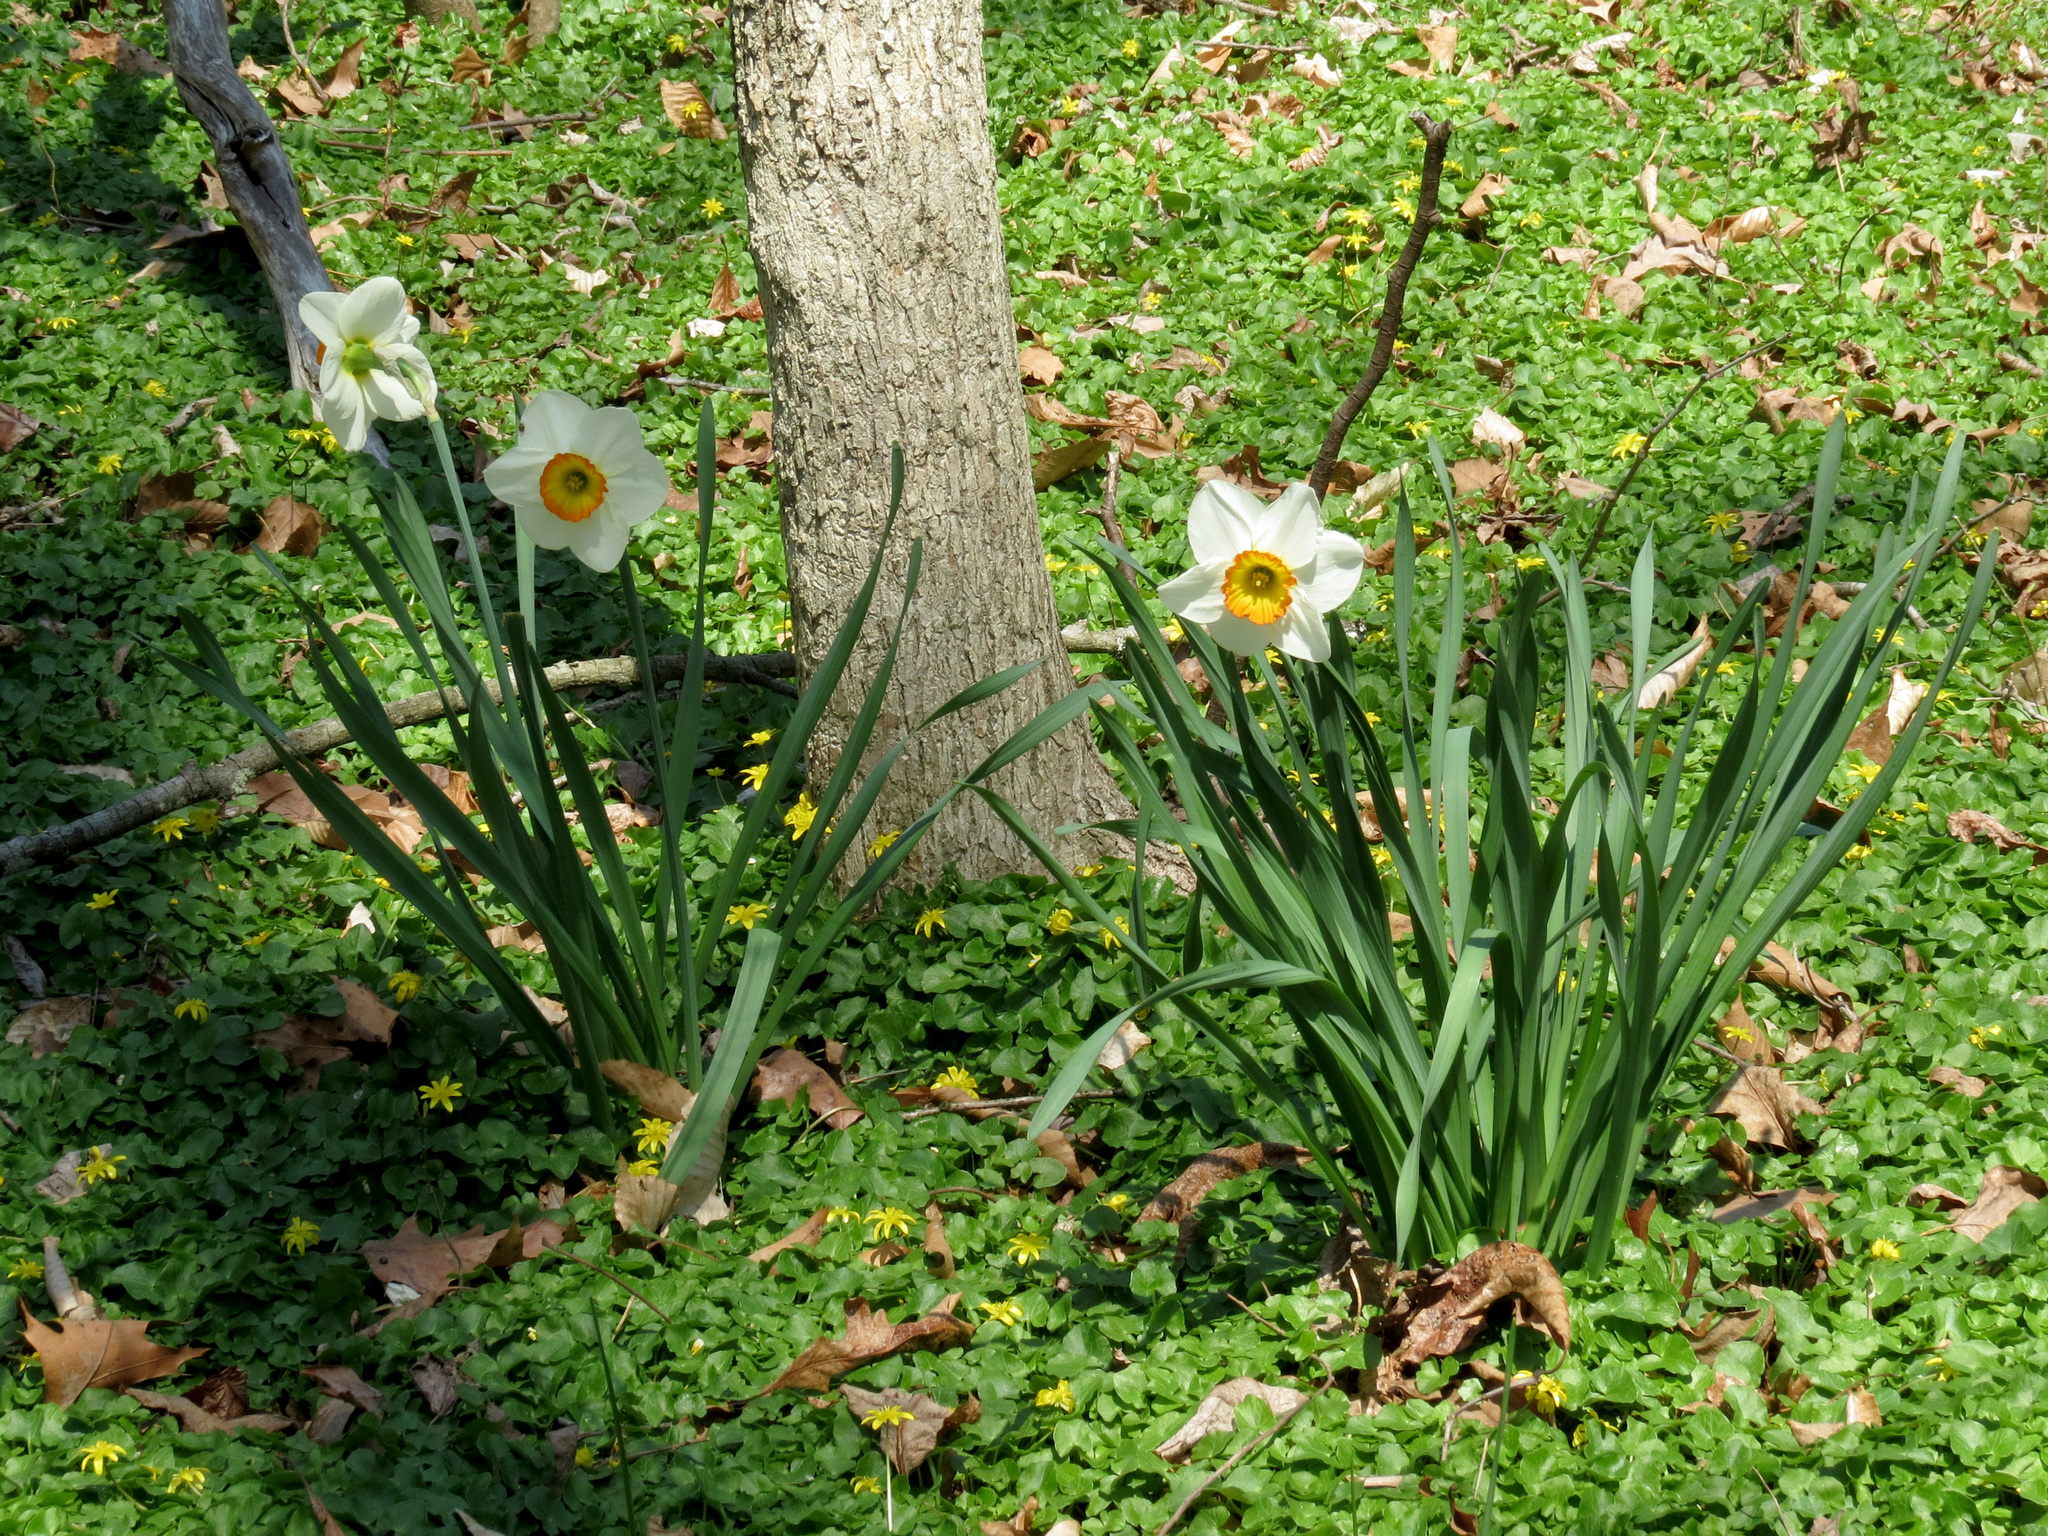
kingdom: Plantae
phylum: Tracheophyta
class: Liliopsida
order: Asparagales
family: Amaryllidaceae
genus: Narcissus
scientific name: Narcissus poeticus
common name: Pheasant's-eye daffodil
